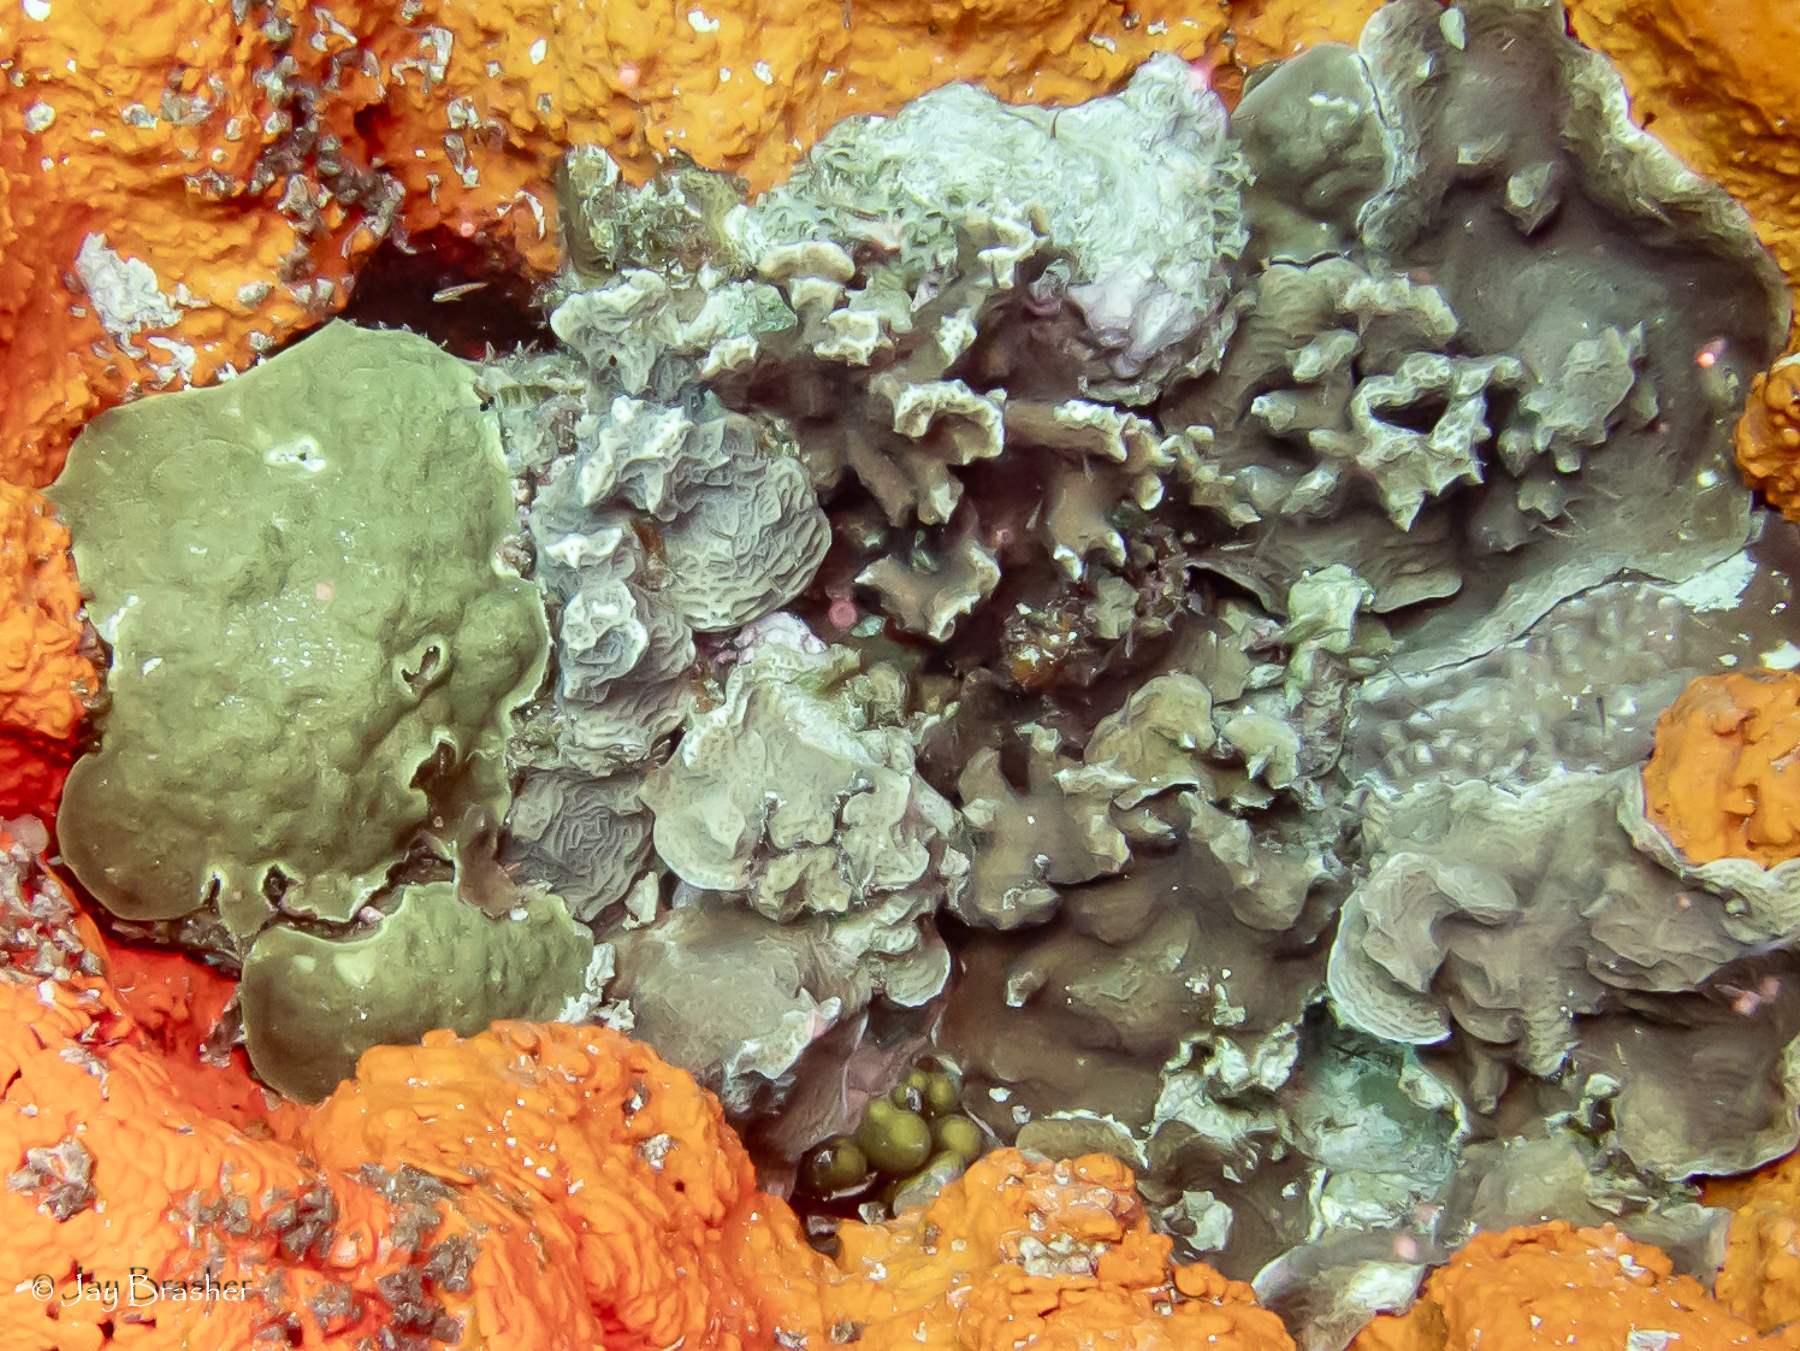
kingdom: Animalia
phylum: Cnidaria
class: Anthozoa
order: Scleractinia
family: Poritidae
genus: Porites
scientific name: Porites astreoides
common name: Mustard hill coral
